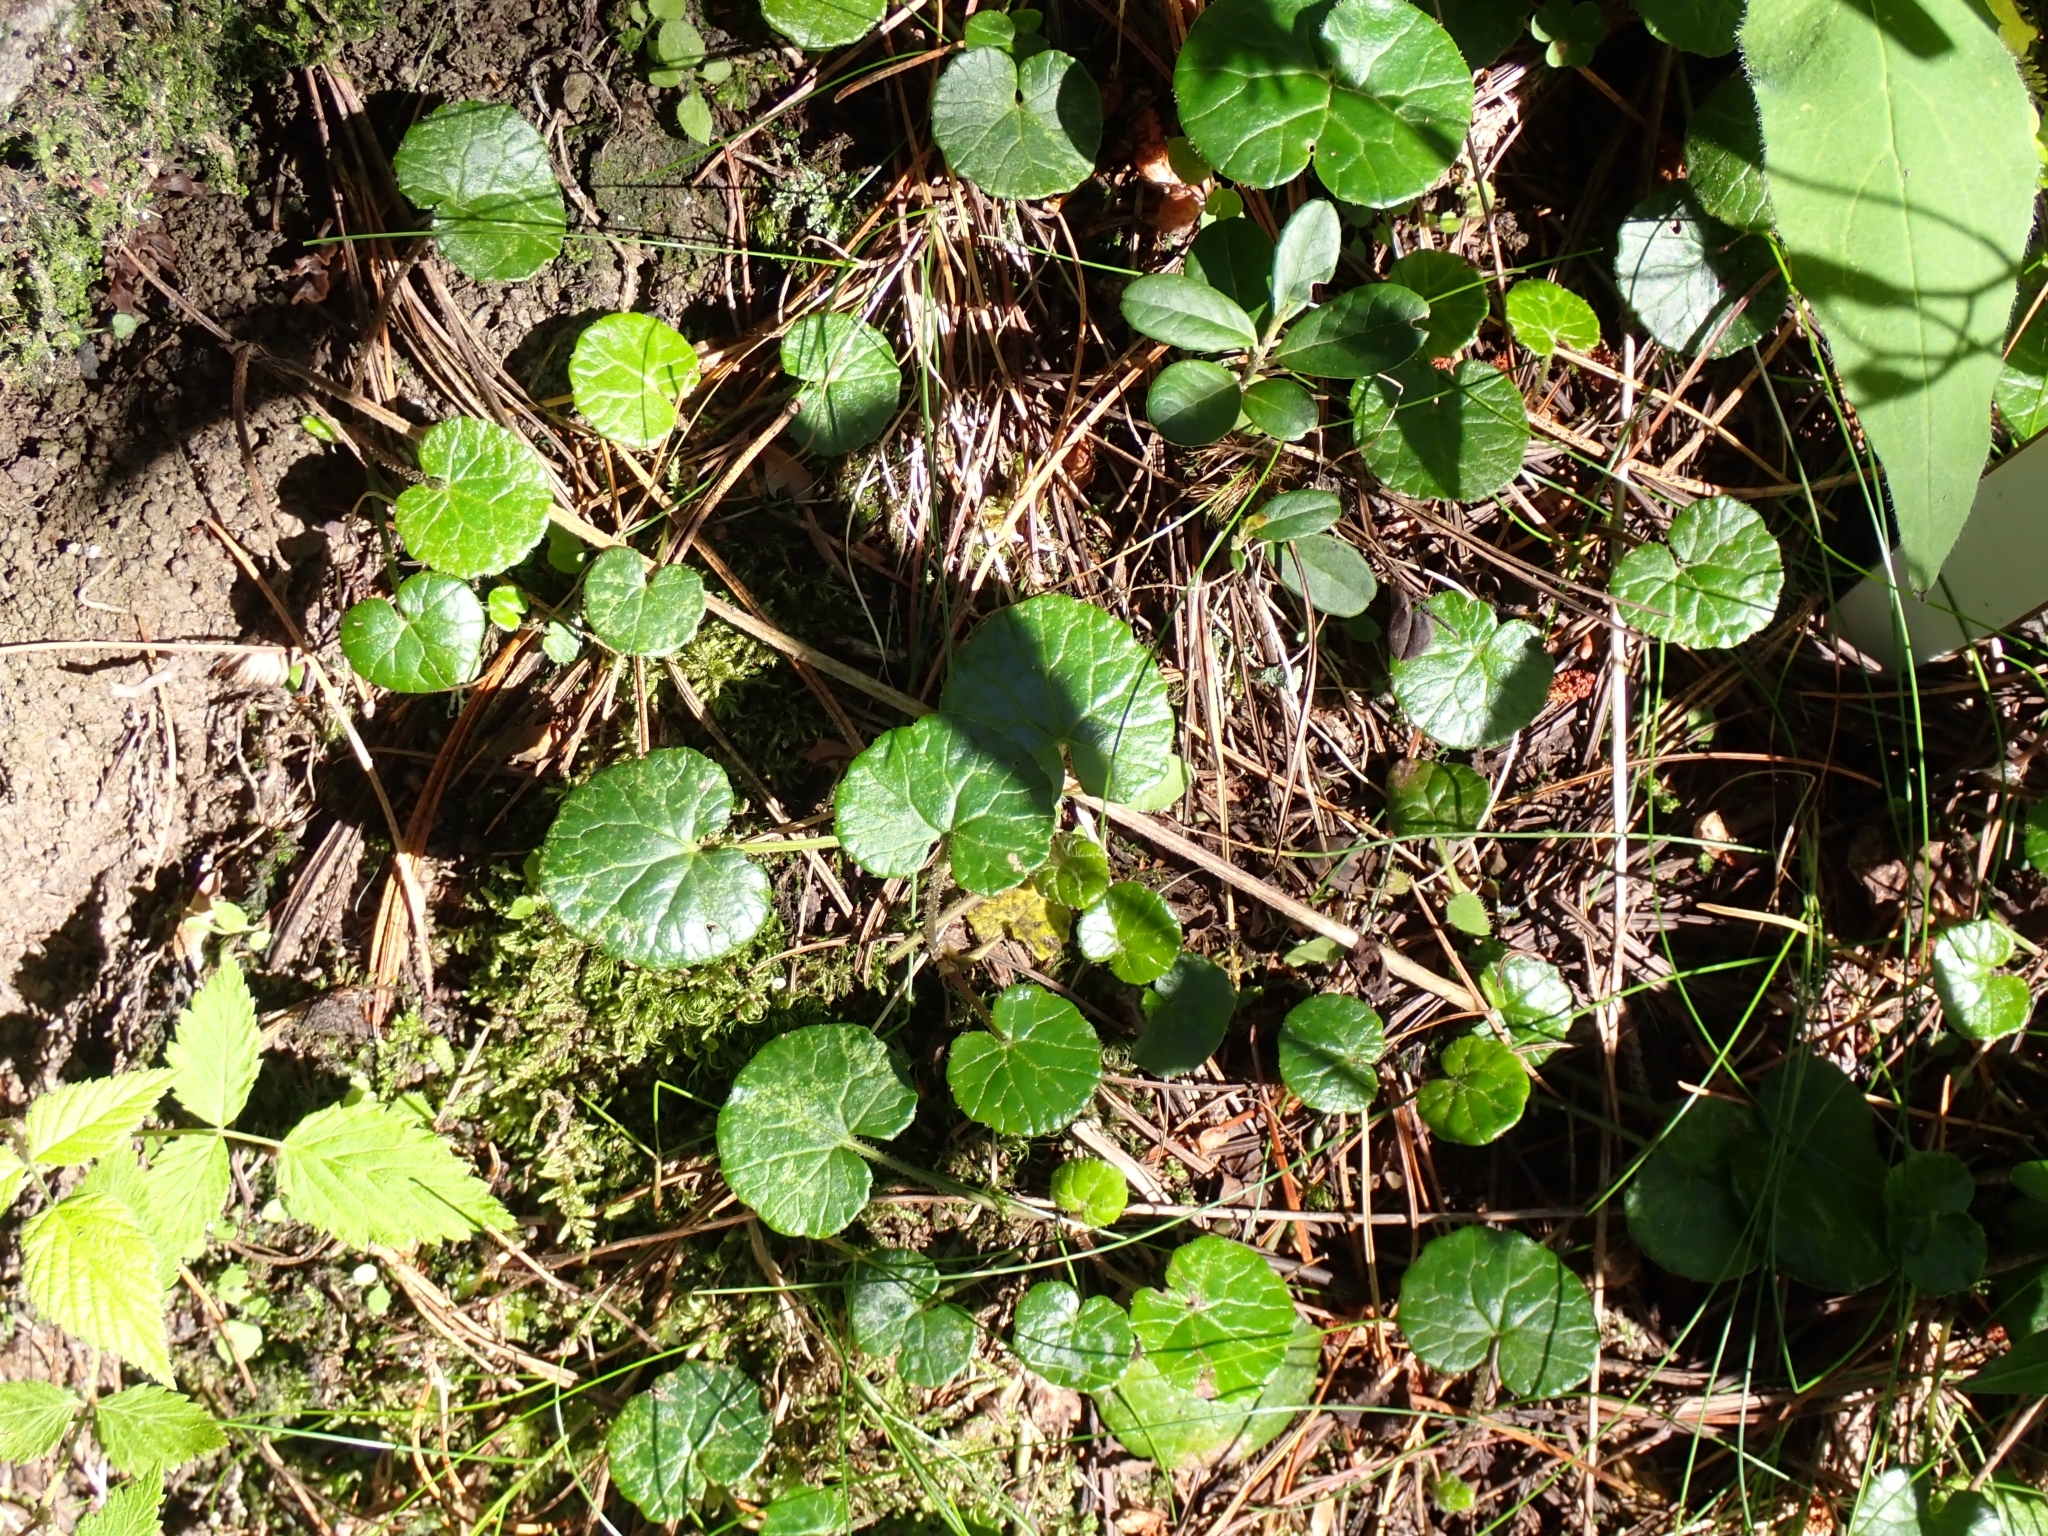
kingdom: Plantae
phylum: Tracheophyta
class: Magnoliopsida
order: Asterales
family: Asteraceae
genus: Homogyne
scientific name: Homogyne alpina
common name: Purple colt's-foot
